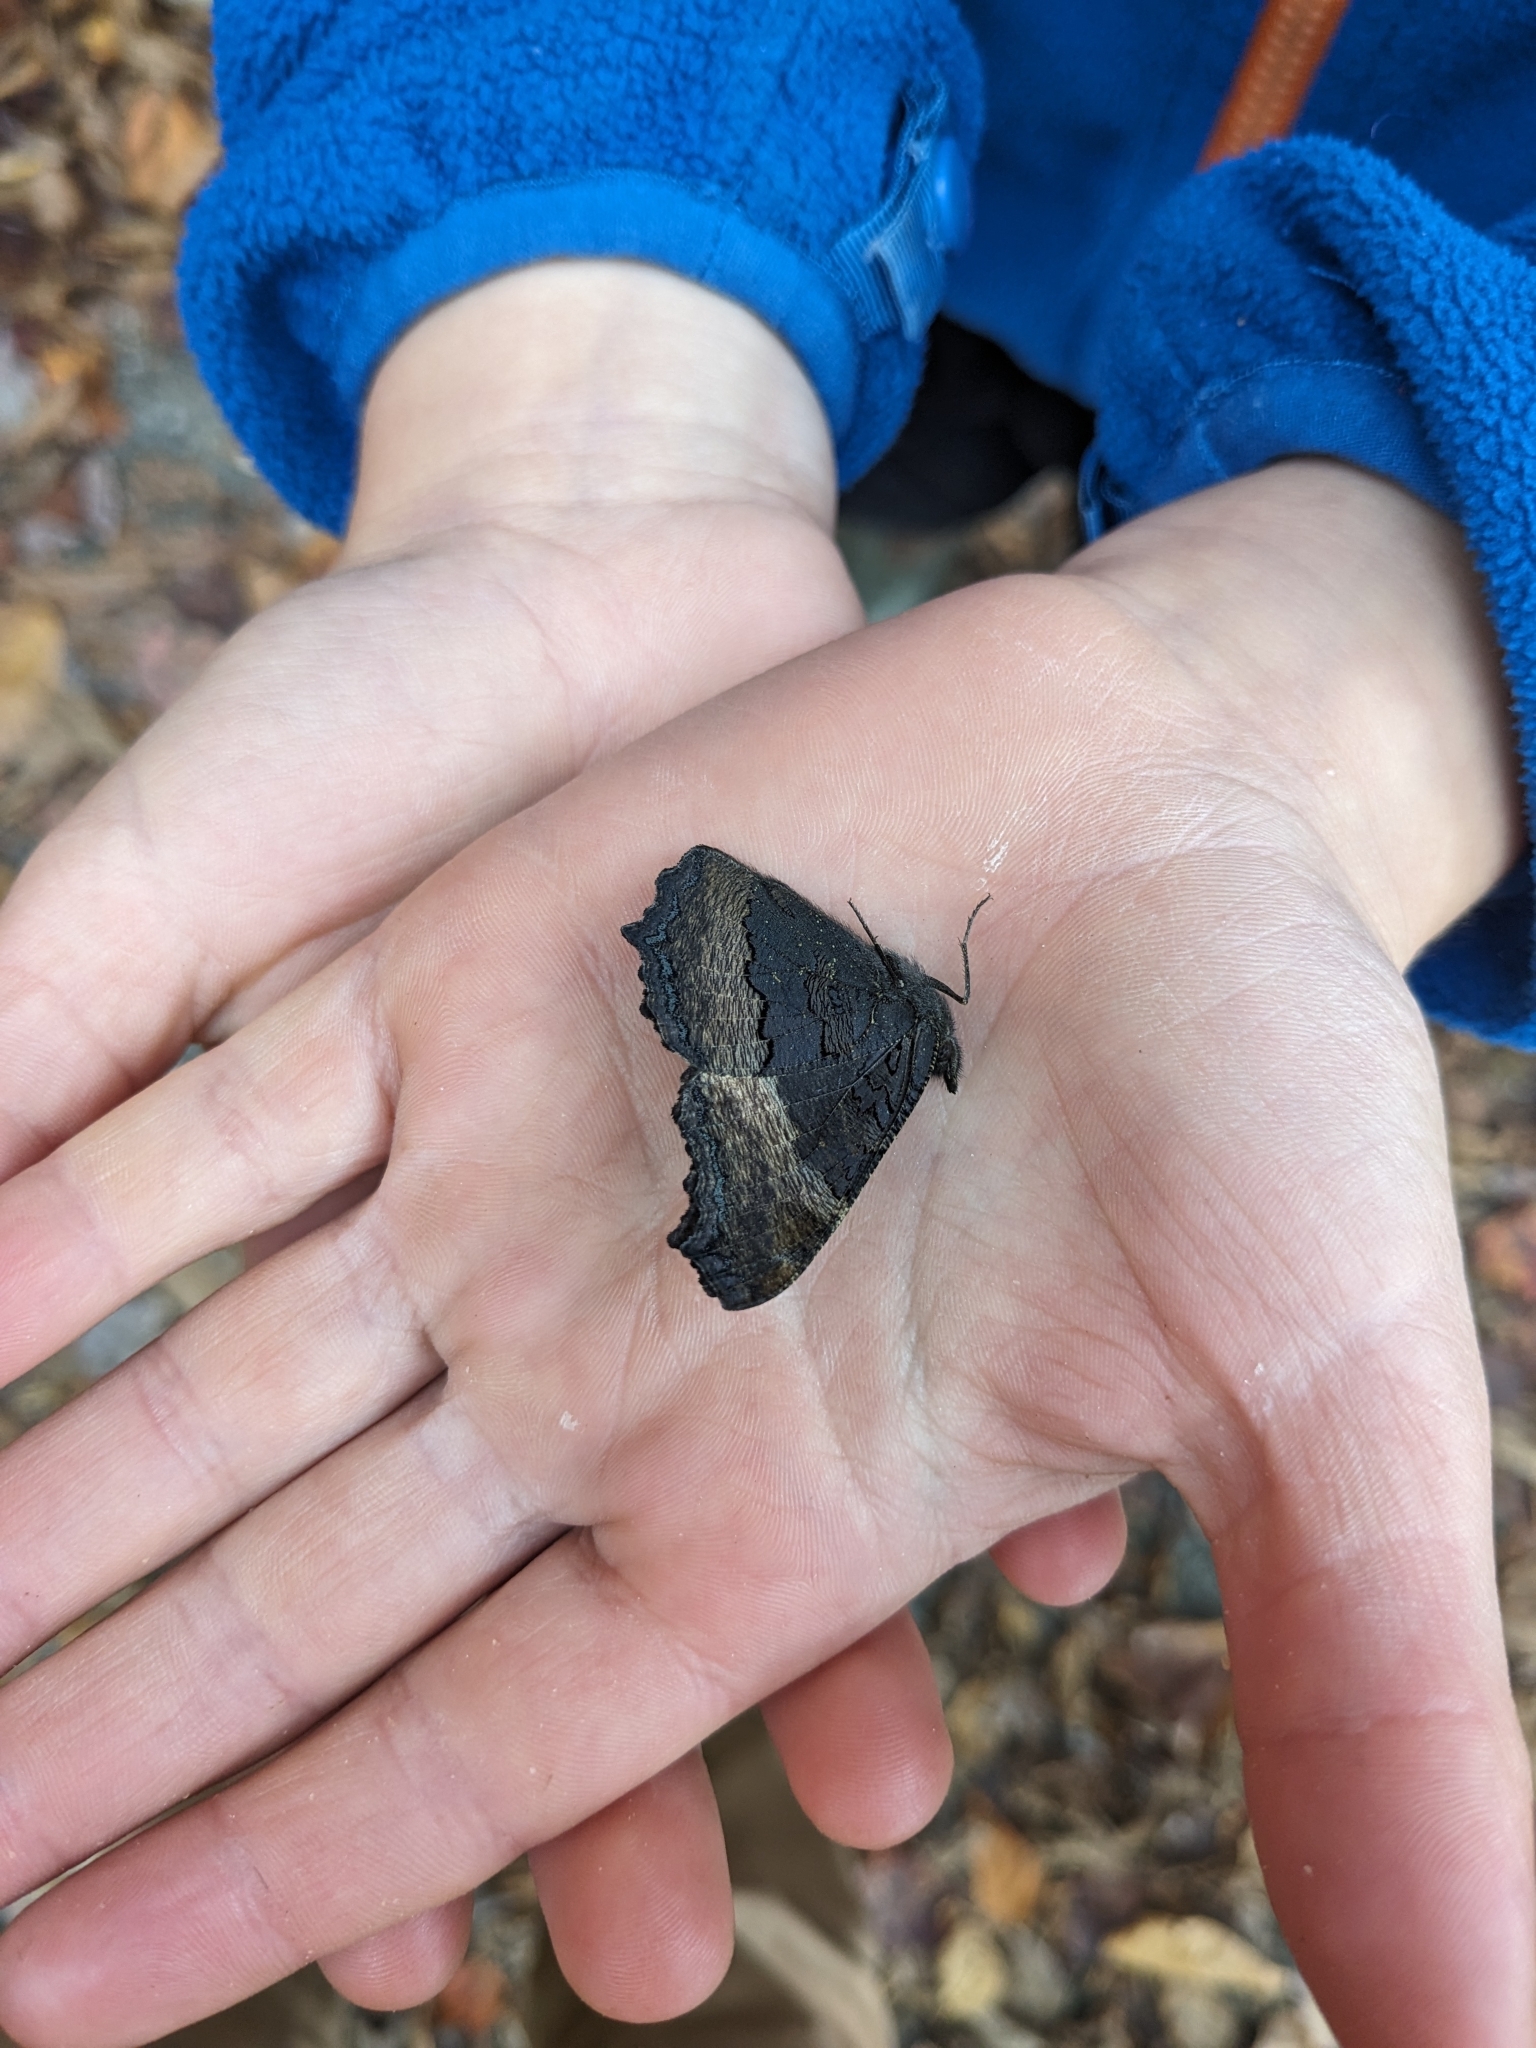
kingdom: Animalia
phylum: Arthropoda
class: Insecta
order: Lepidoptera
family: Nymphalidae
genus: Aglais
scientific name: Aglais milberti
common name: Milbert's tortoiseshell
